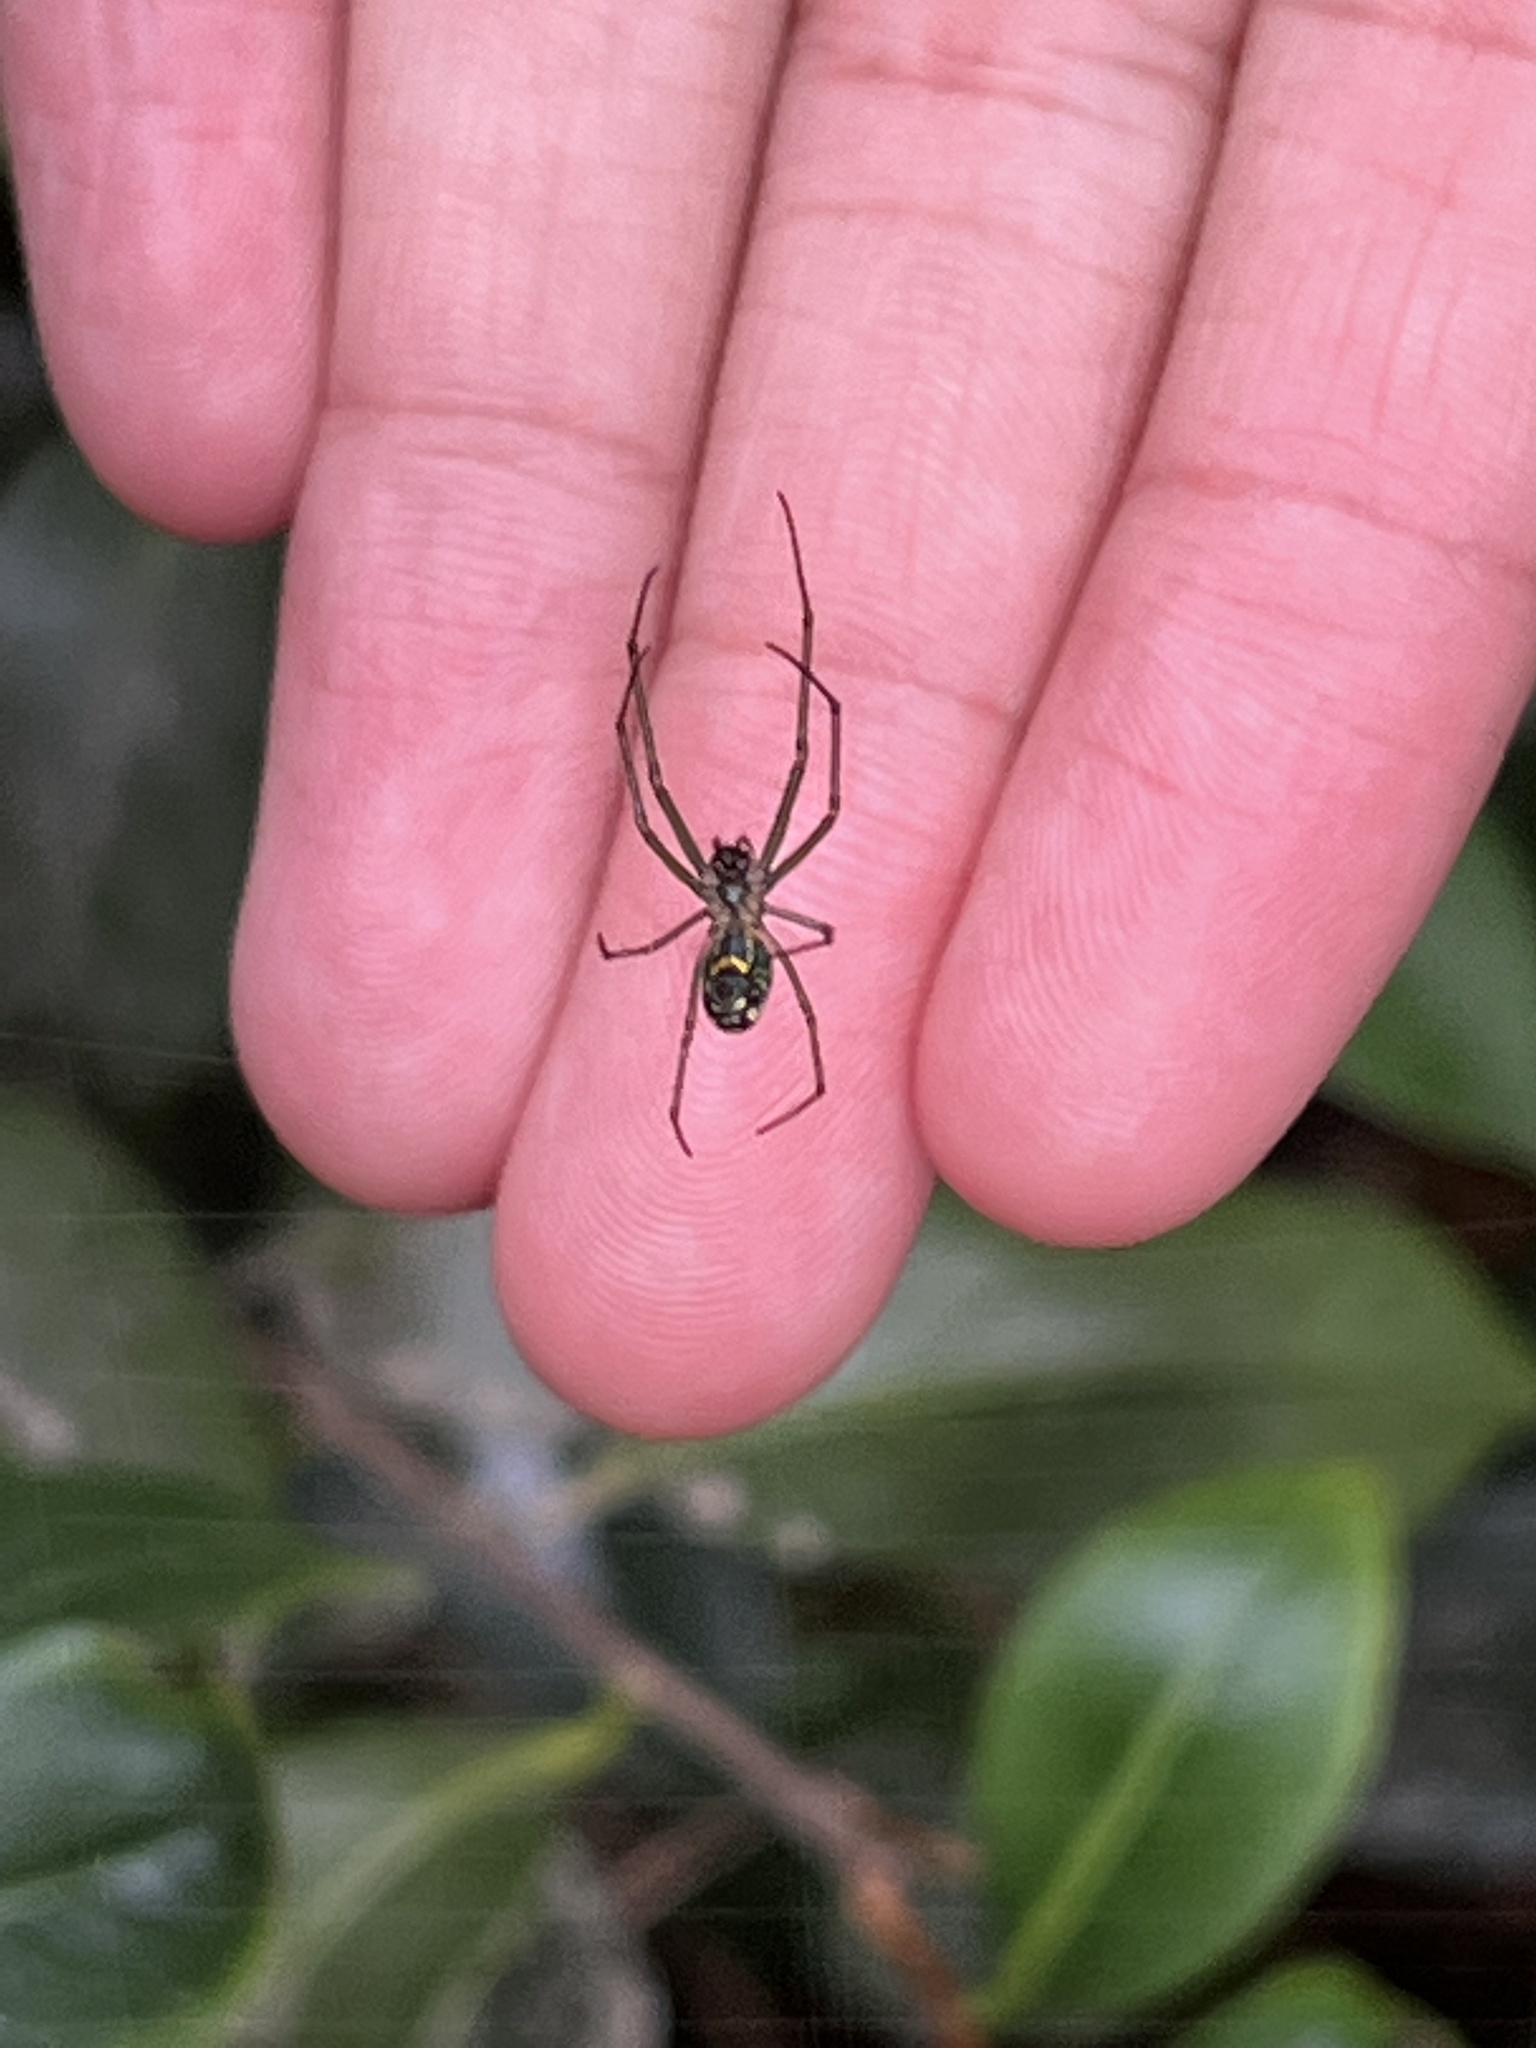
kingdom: Animalia
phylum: Arthropoda
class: Arachnida
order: Araneae
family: Tetragnathidae
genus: Leucauge
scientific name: Leucauge venusta
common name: Longjawed orb weavers
